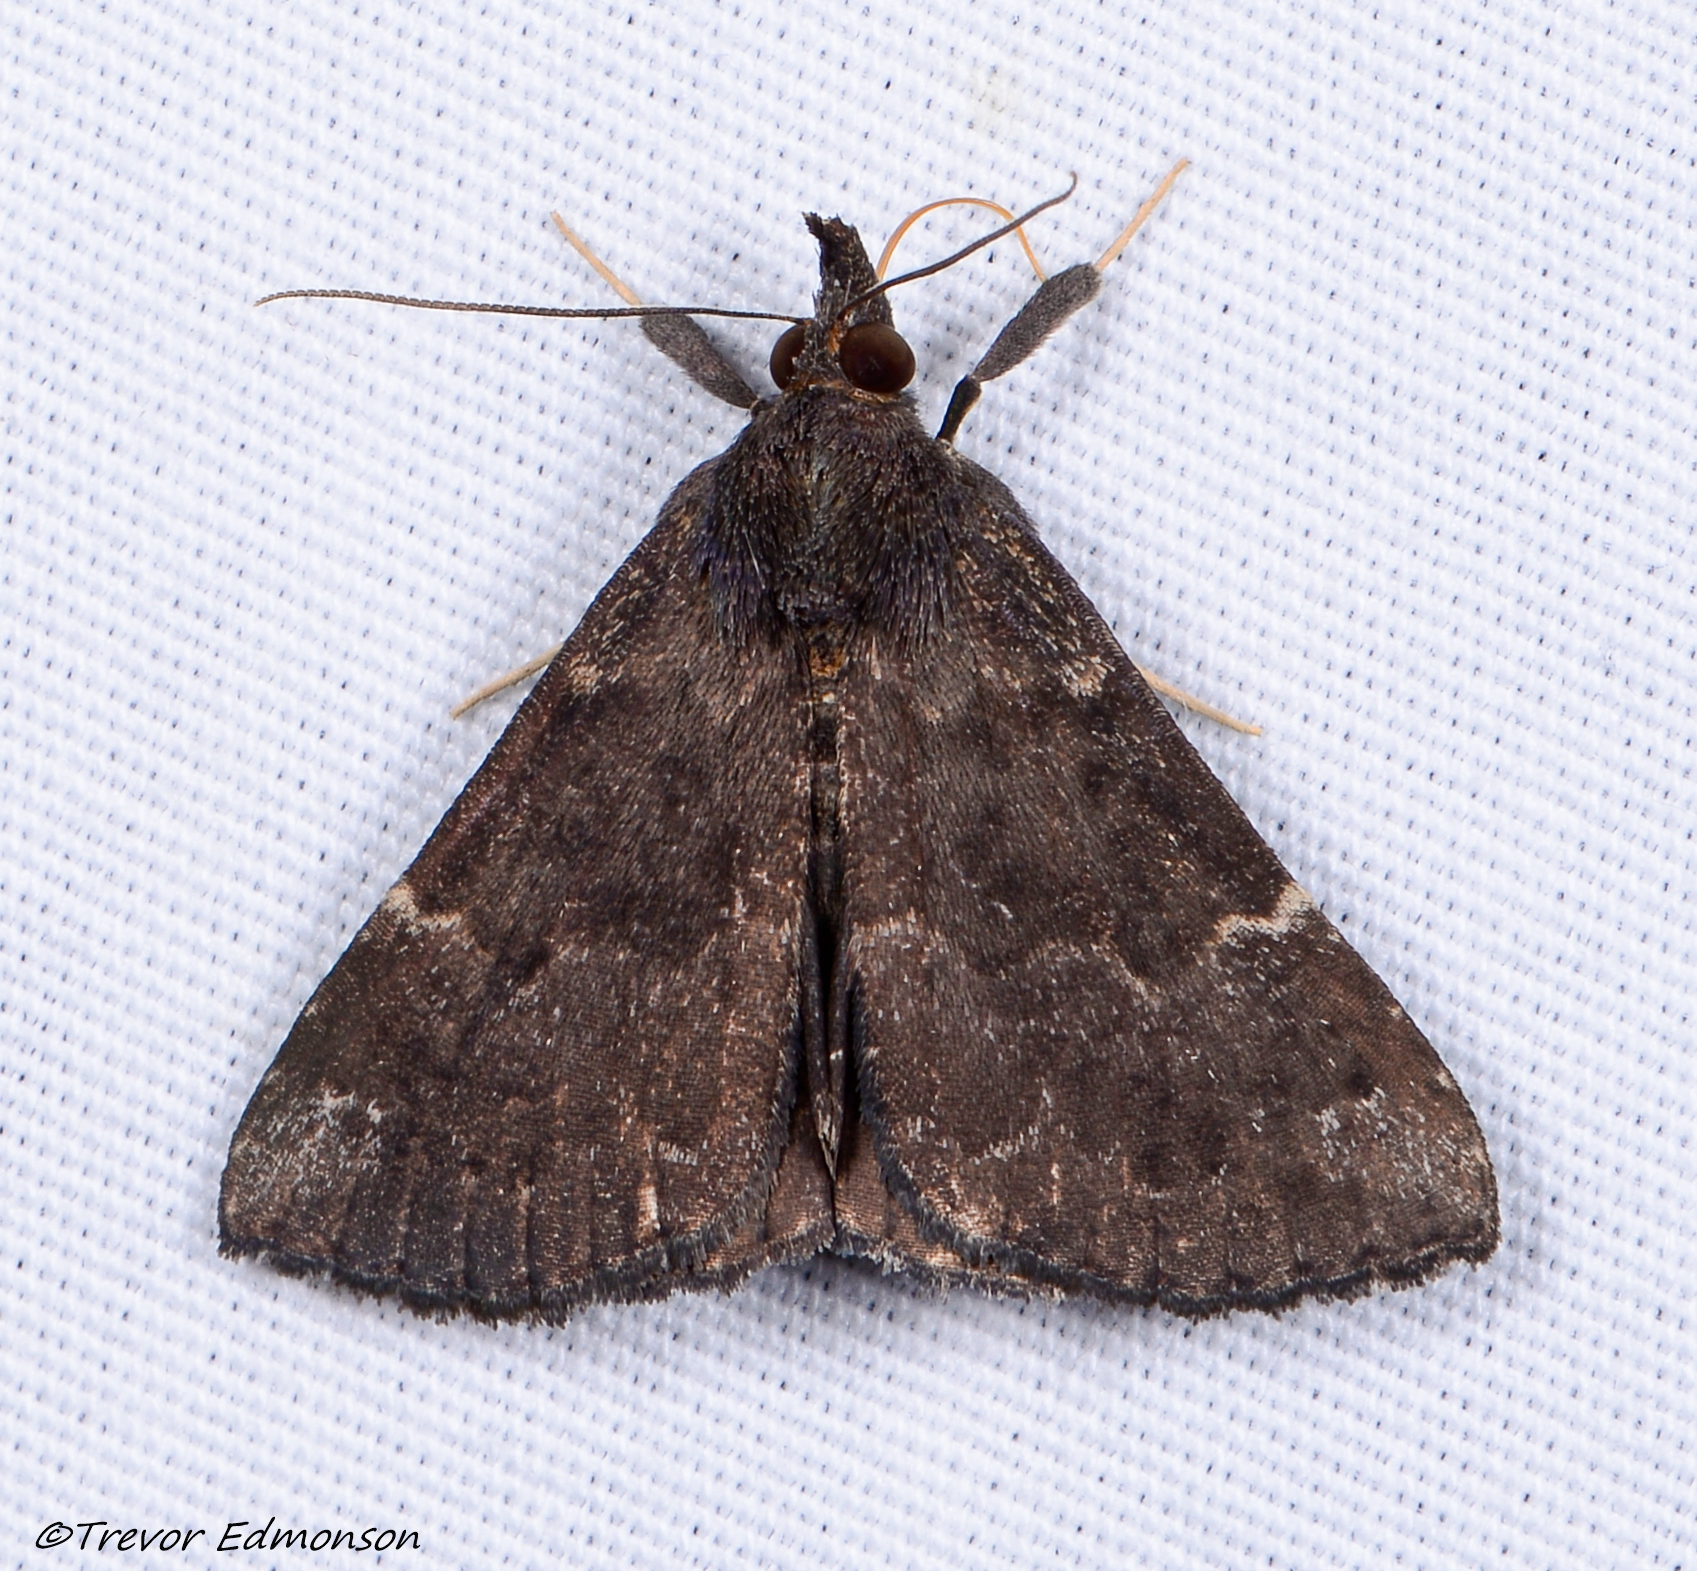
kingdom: Animalia
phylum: Arthropoda
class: Insecta
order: Lepidoptera
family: Erebidae
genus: Hypena
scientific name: Hypena sordidula
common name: Sordid snout
